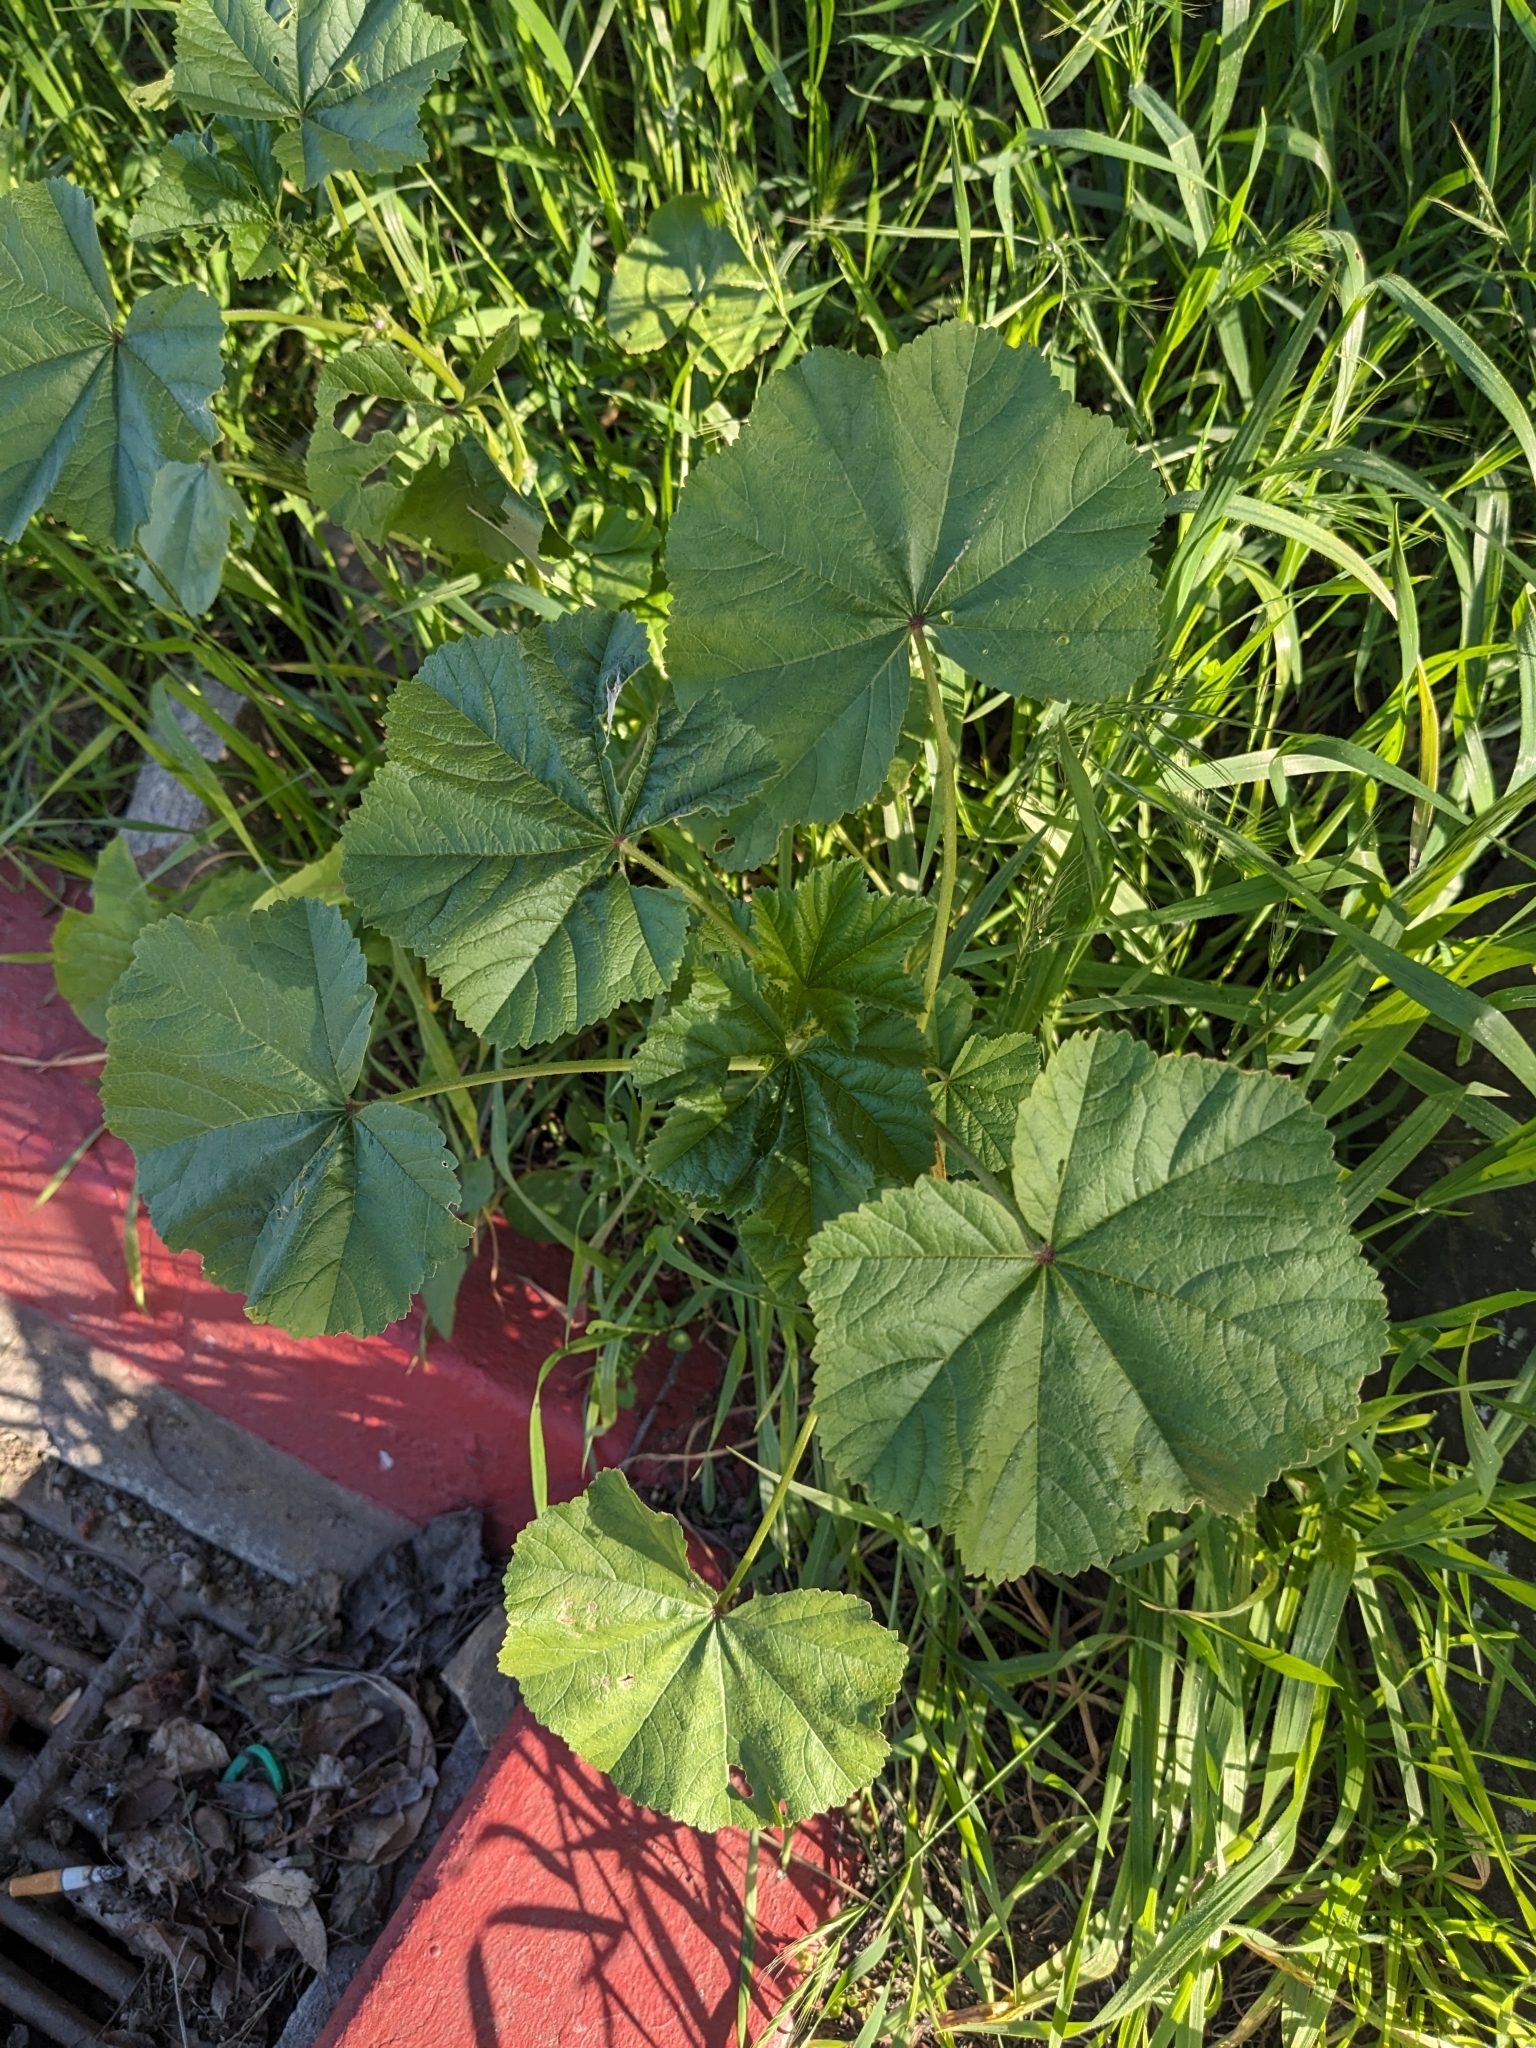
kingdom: Plantae
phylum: Tracheophyta
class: Magnoliopsida
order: Malvales
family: Malvaceae
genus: Malva
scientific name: Malva
